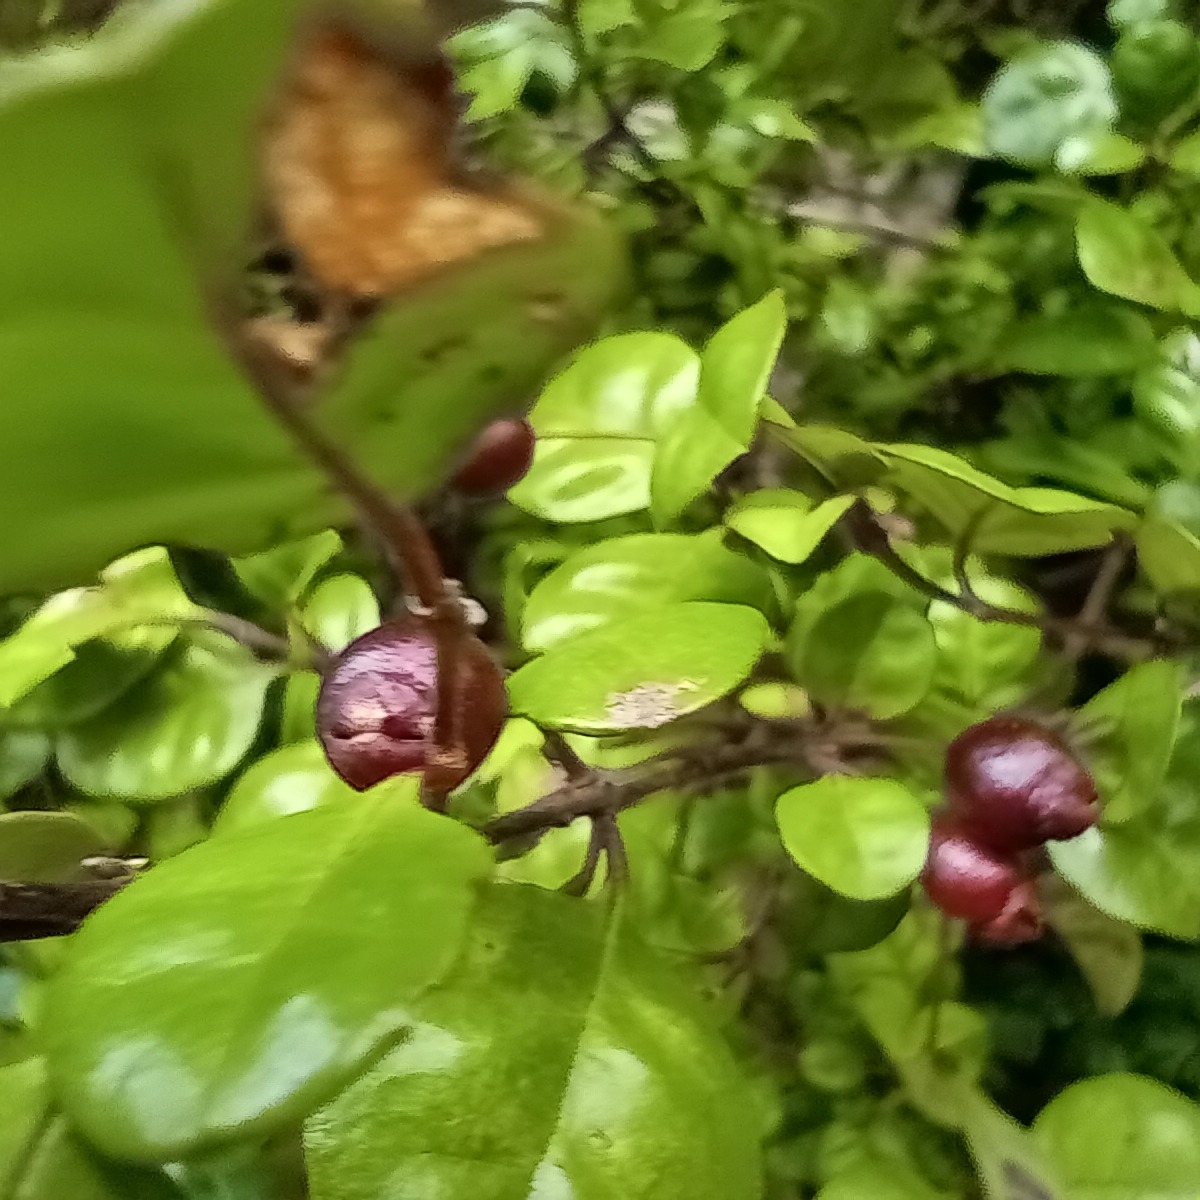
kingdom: Plantae
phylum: Tracheophyta
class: Magnoliopsida
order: Myrtales
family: Myrtaceae
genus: Lophomyrtus
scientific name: Lophomyrtus ralphii
